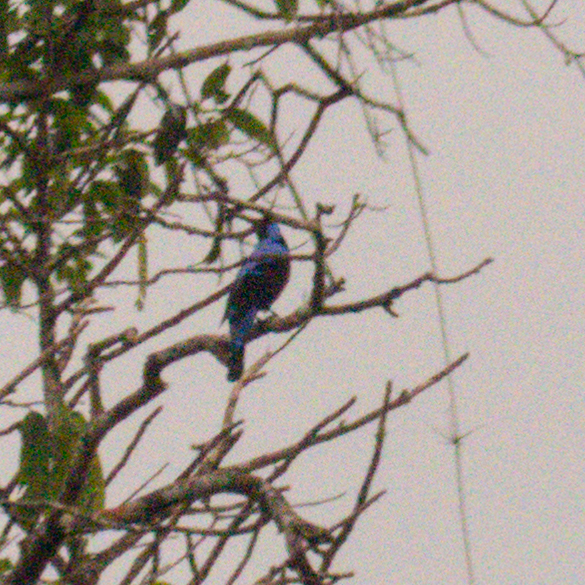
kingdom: Animalia
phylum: Chordata
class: Aves
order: Passeriformes
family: Irenidae
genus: Irena
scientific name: Irena puella
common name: Asian fairy-bluebird
